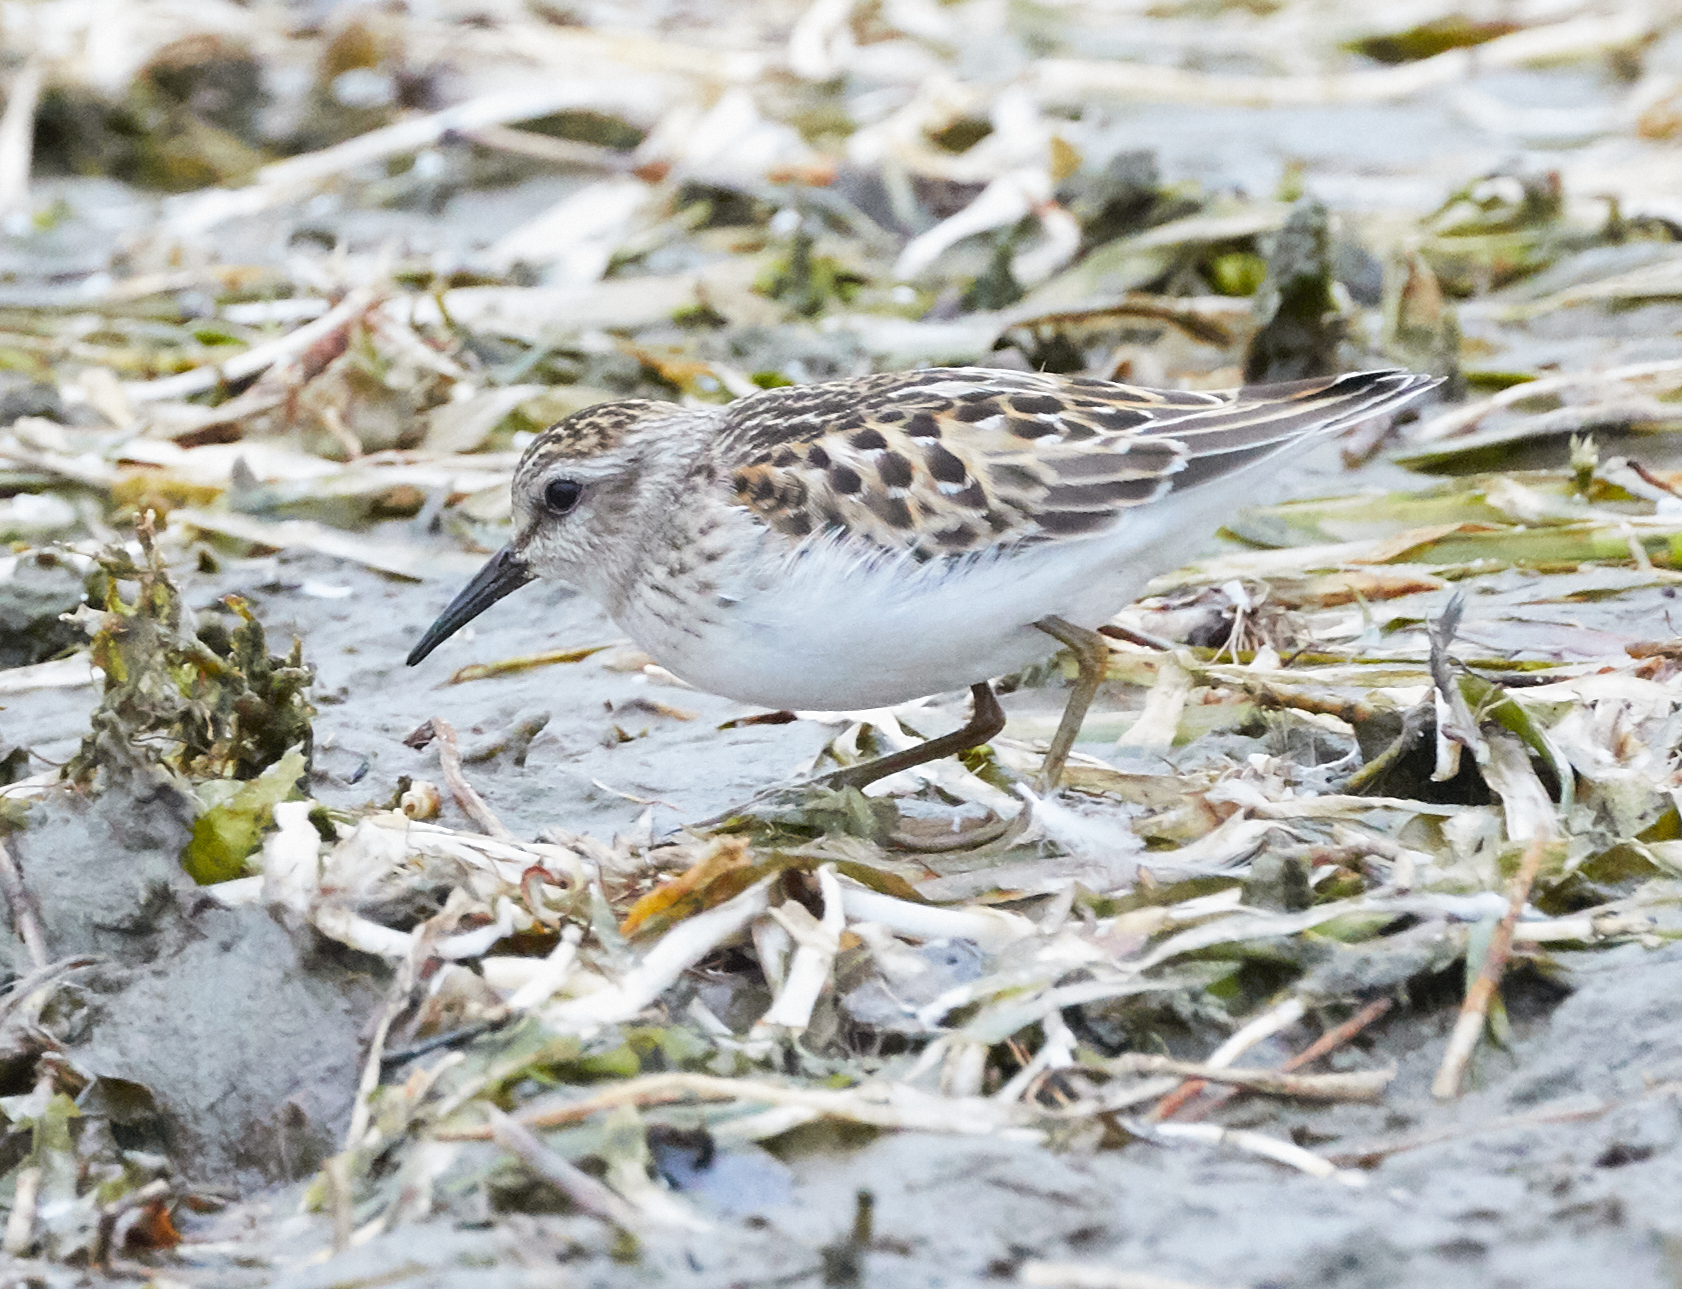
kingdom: Animalia
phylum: Chordata
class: Aves
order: Charadriiformes
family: Scolopacidae
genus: Calidris
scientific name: Calidris minutilla
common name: Least sandpiper
